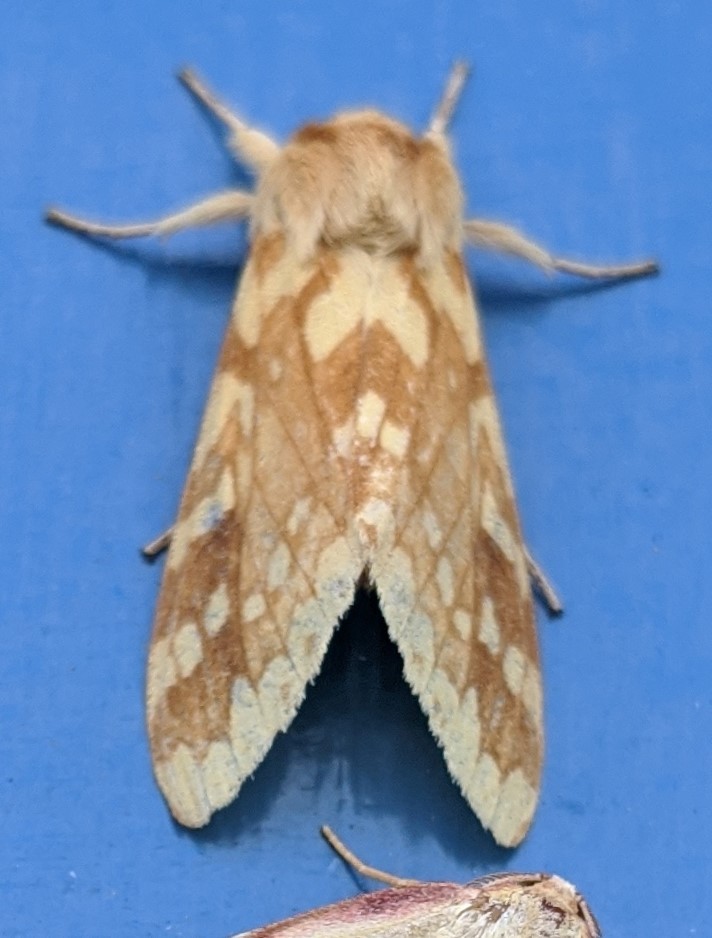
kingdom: Animalia
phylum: Arthropoda
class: Insecta
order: Lepidoptera
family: Erebidae
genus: Lophocampa
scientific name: Lophocampa maculata
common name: Spotted tussock moth
